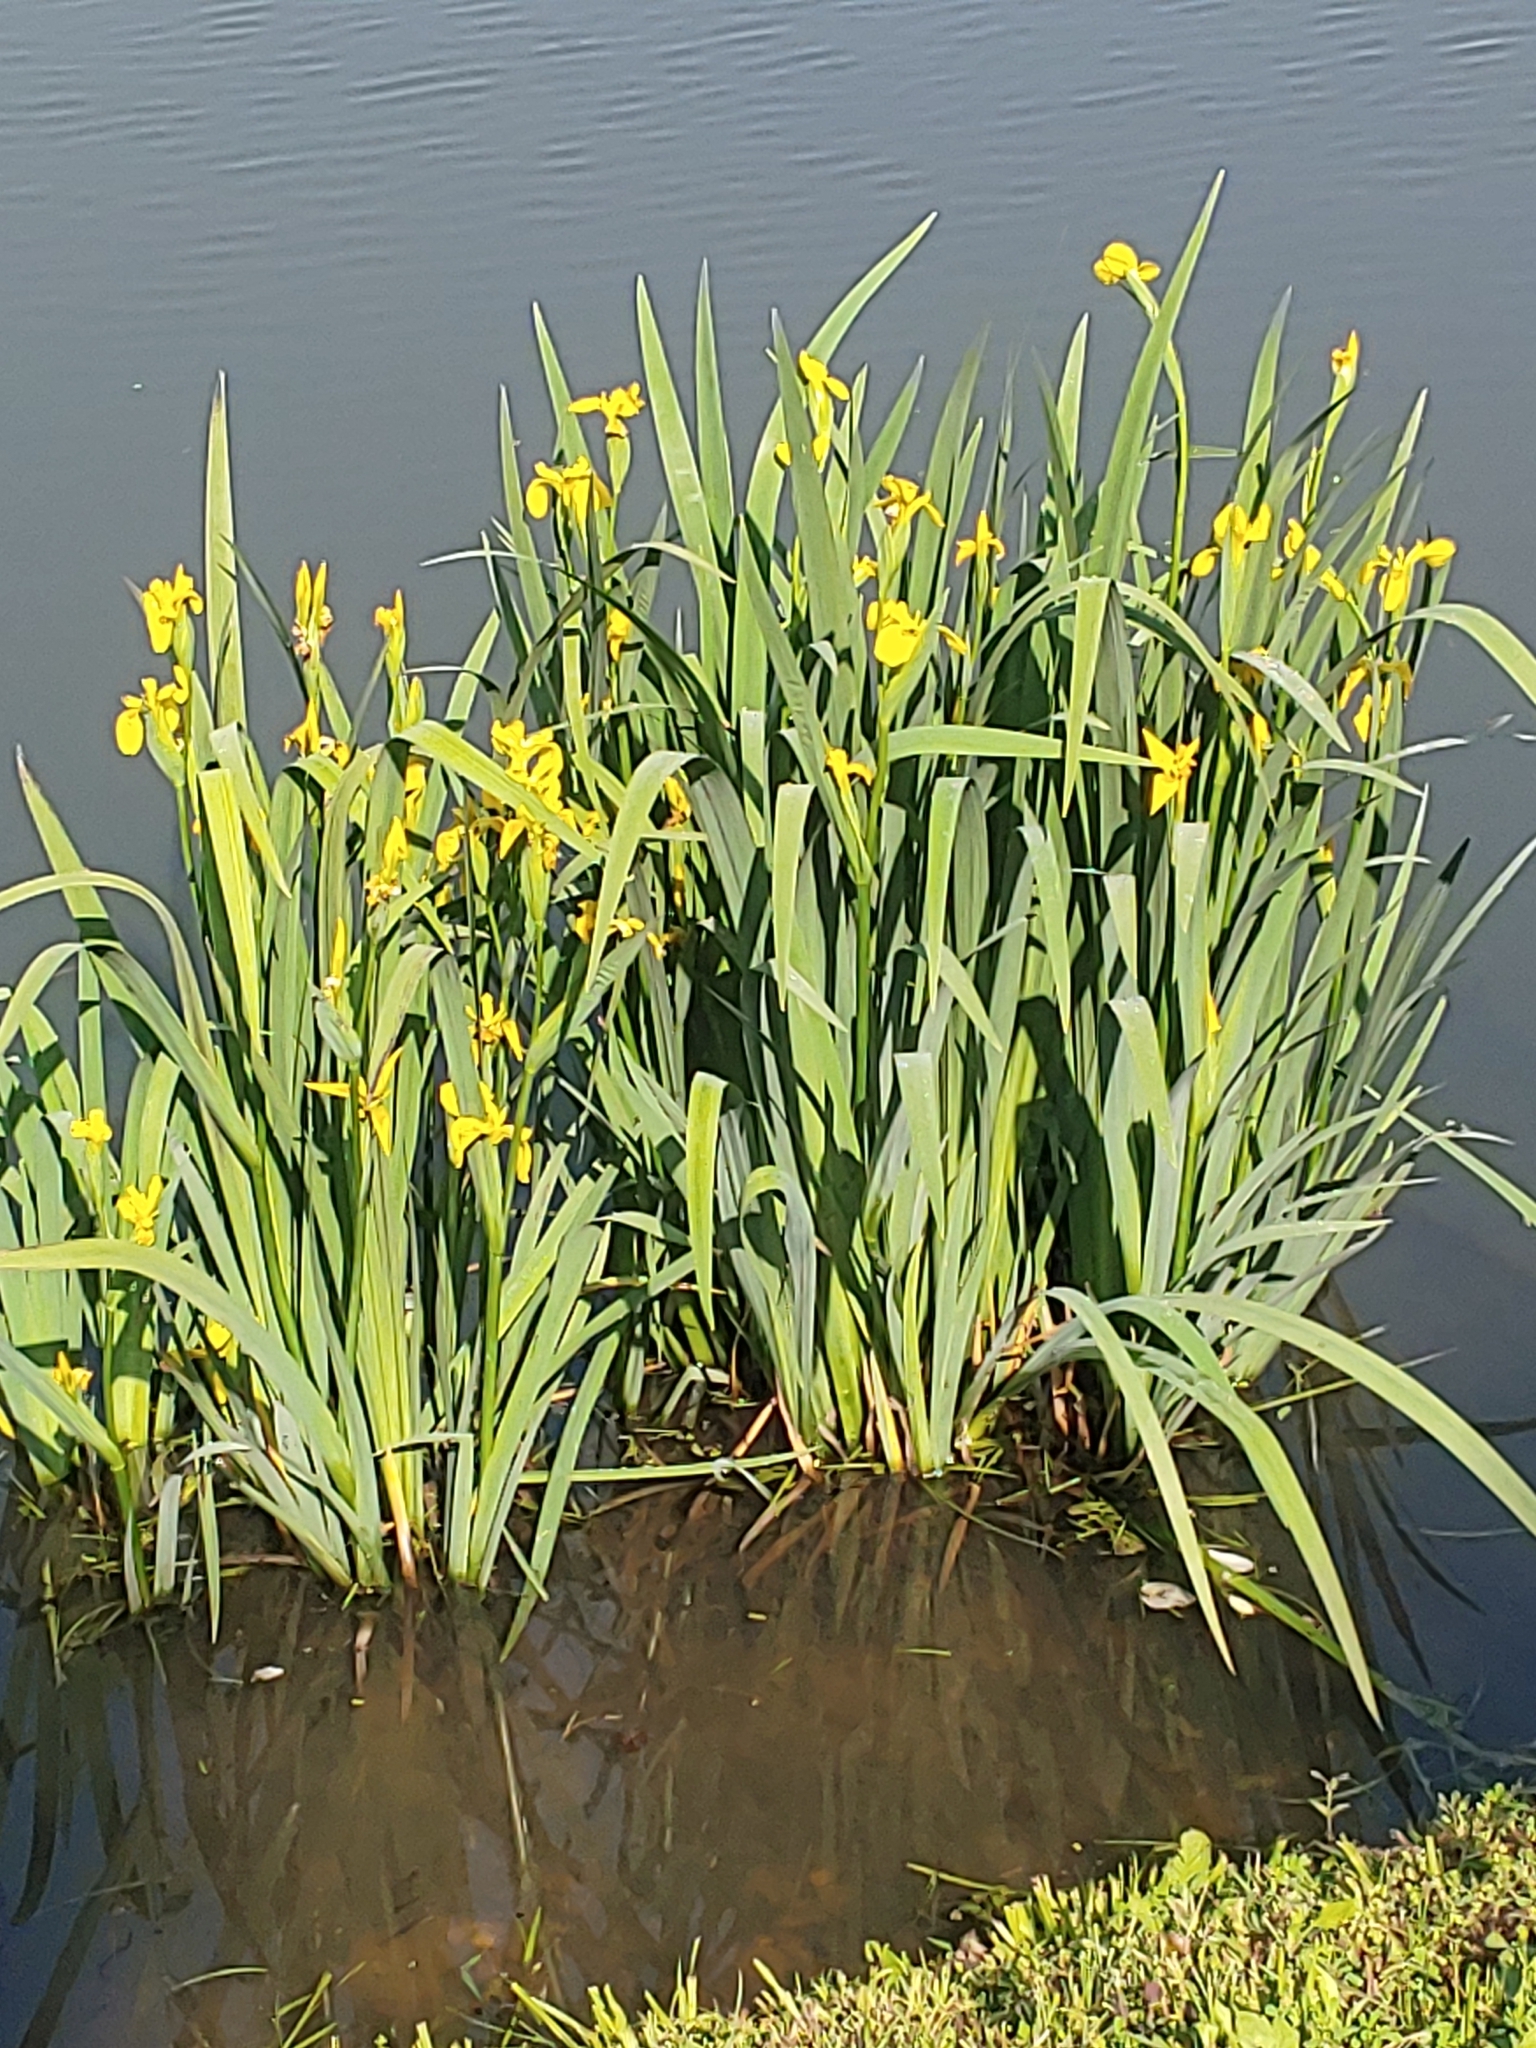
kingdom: Plantae
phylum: Tracheophyta
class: Liliopsida
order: Asparagales
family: Iridaceae
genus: Iris
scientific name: Iris pseudacorus
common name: Yellow flag
